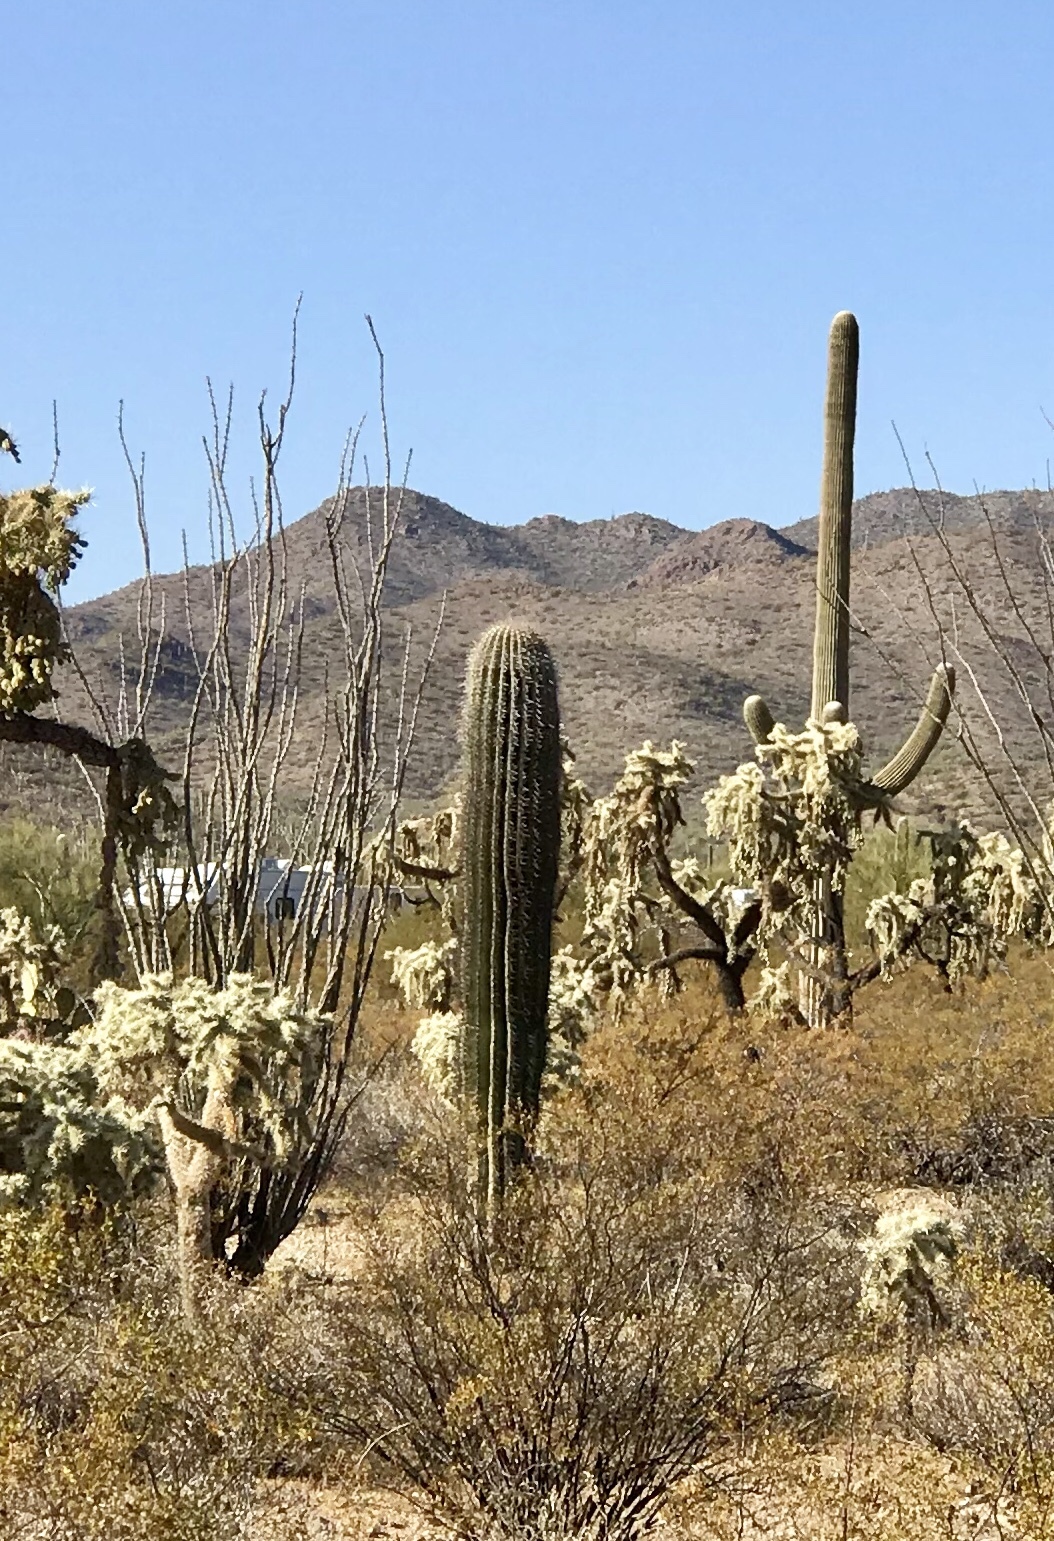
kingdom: Plantae
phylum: Tracheophyta
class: Magnoliopsida
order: Caryophyllales
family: Cactaceae
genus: Carnegiea
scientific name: Carnegiea gigantea
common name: Saguaro
